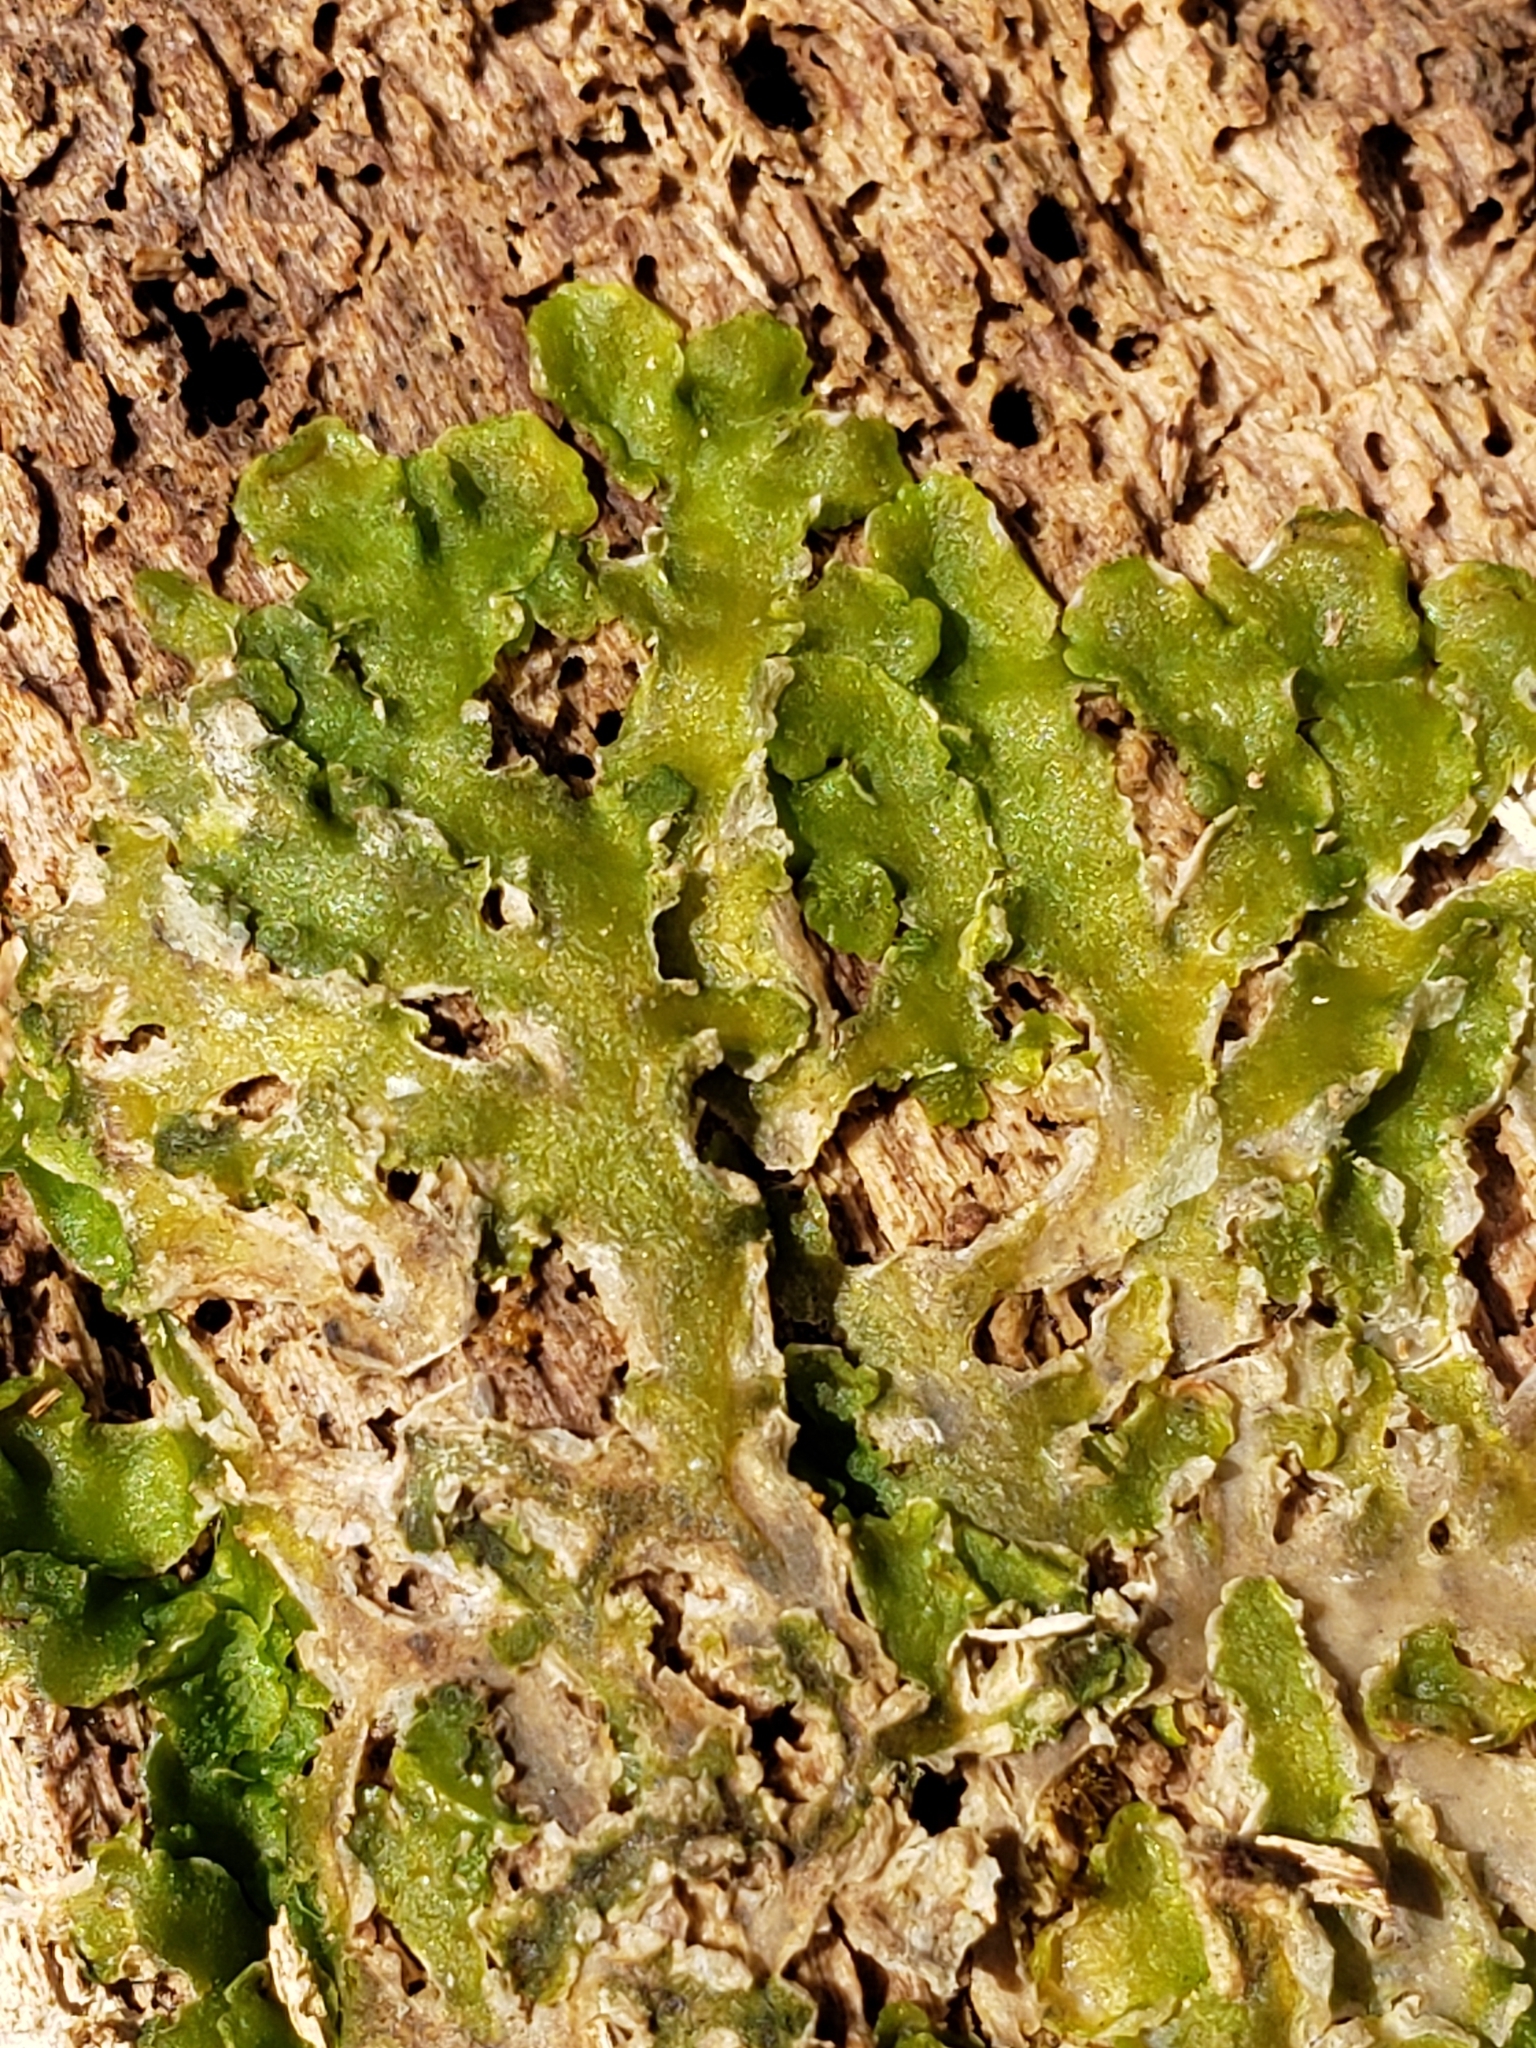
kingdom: Plantae
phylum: Marchantiophyta
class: Jungermanniopsida
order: Metzgeriales
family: Aneuraceae
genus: Aneura
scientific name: Aneura pinguis
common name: Common greasewort
